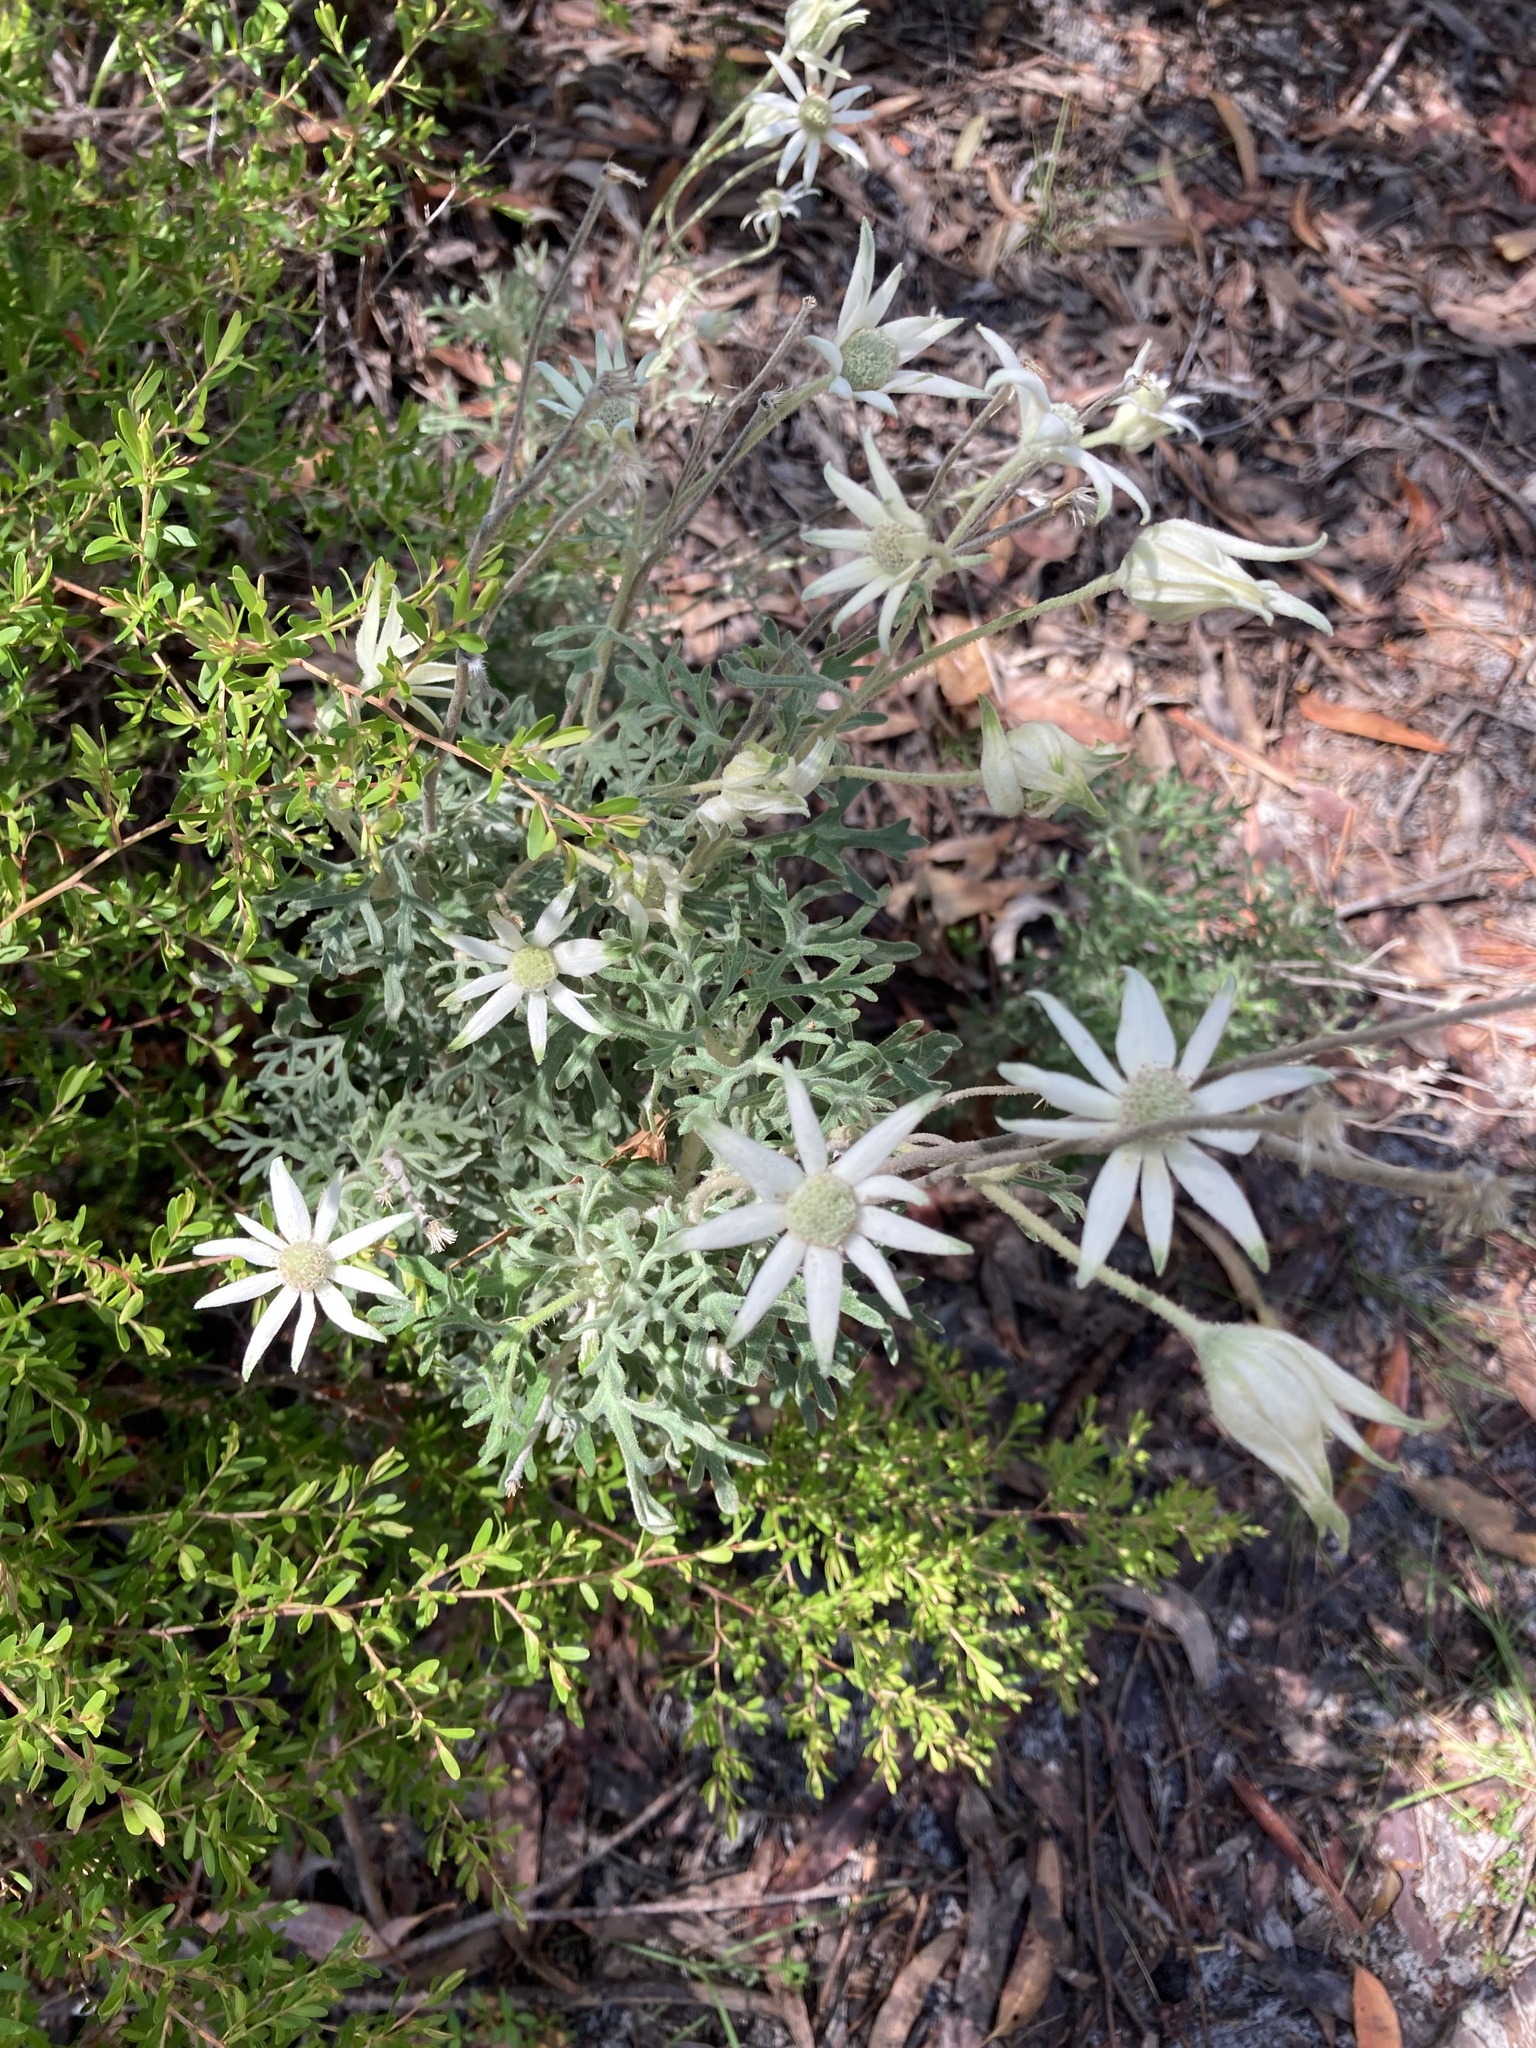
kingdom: Plantae
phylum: Tracheophyta
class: Magnoliopsida
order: Apiales
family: Apiaceae
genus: Actinotus
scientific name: Actinotus helianthi
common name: Flannel-flower
